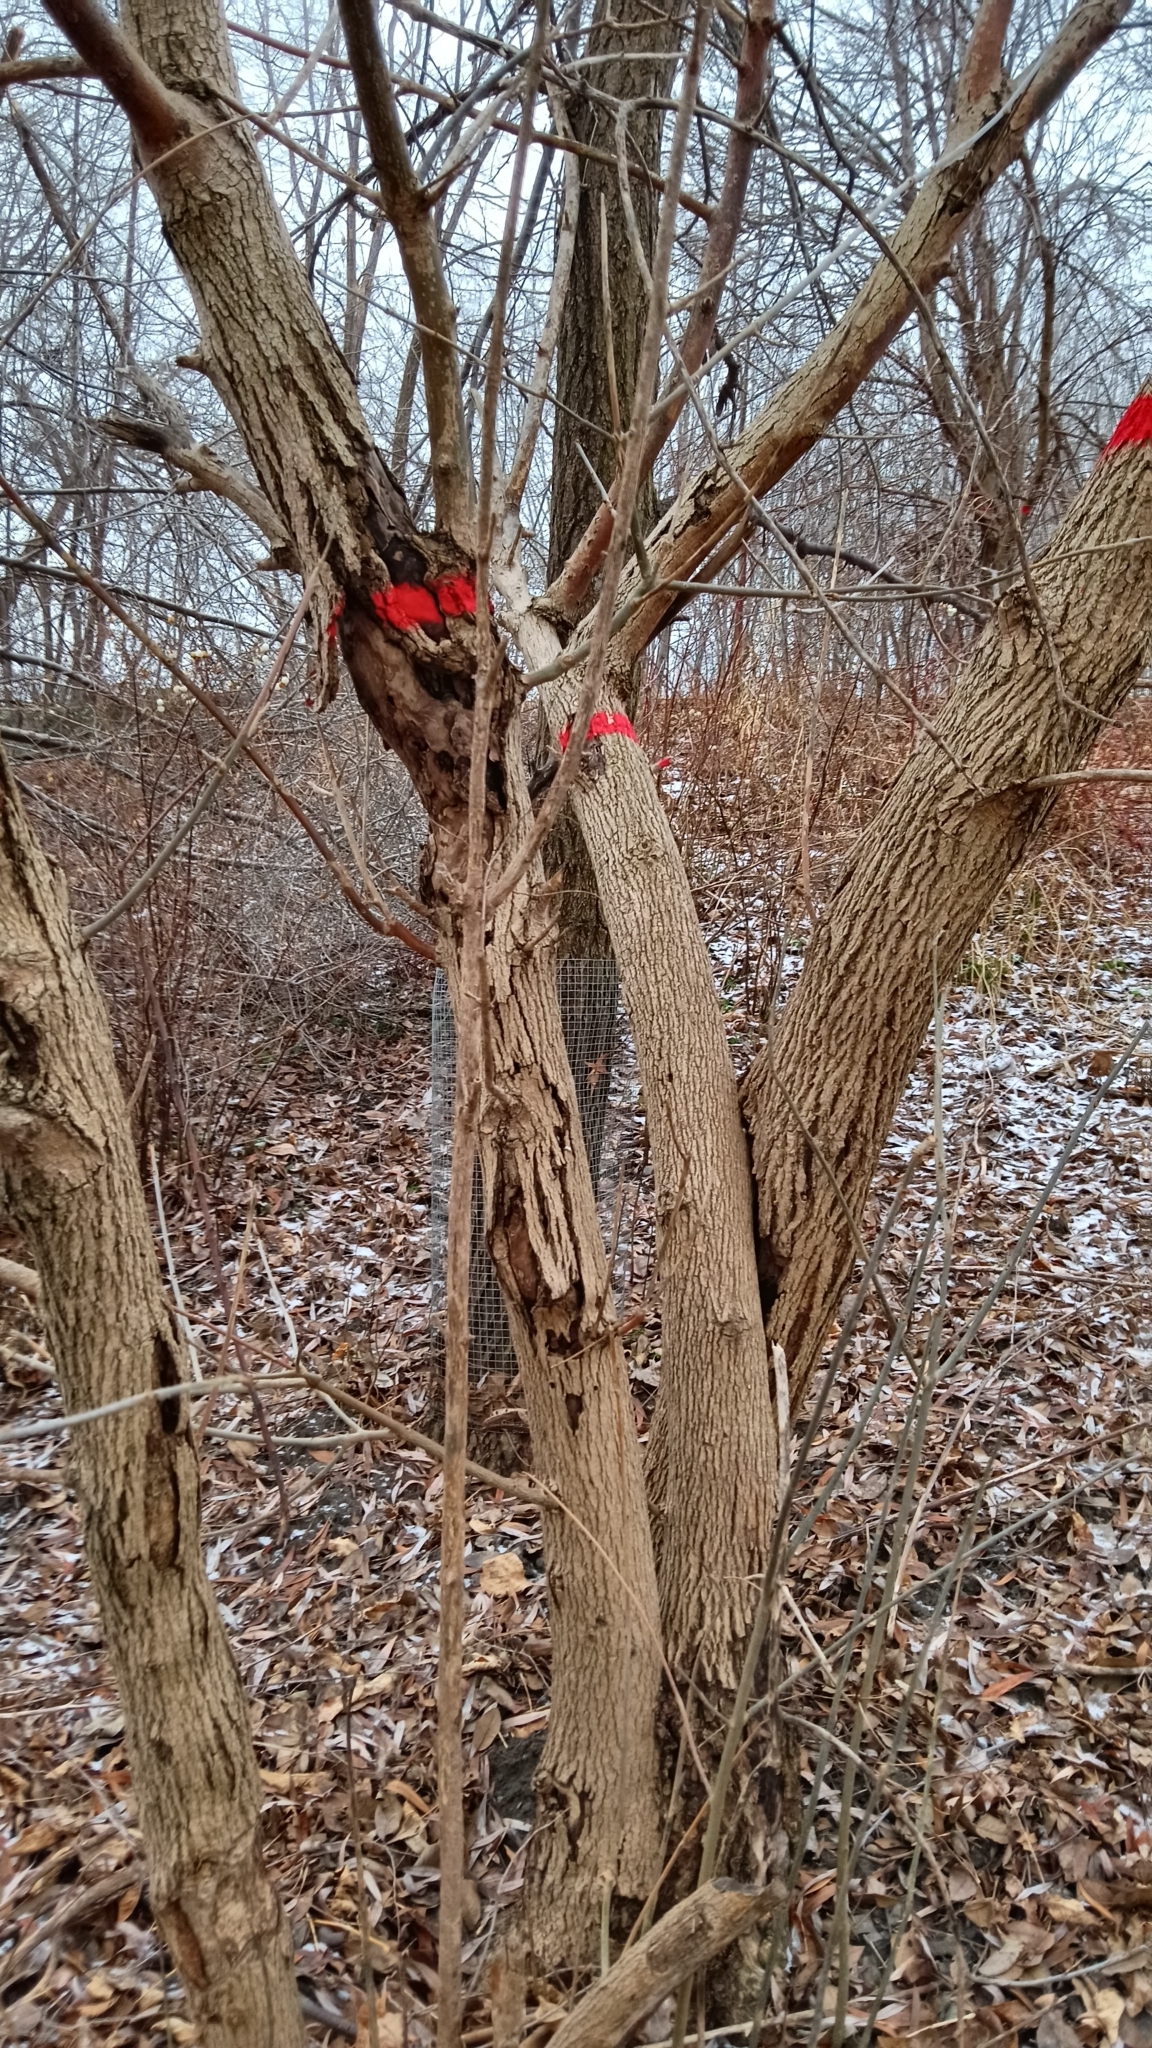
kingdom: Plantae
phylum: Tracheophyta
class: Magnoliopsida
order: Lamiales
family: Oleaceae
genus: Fraxinus
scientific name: Fraxinus pennsylvanica
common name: Green ash
